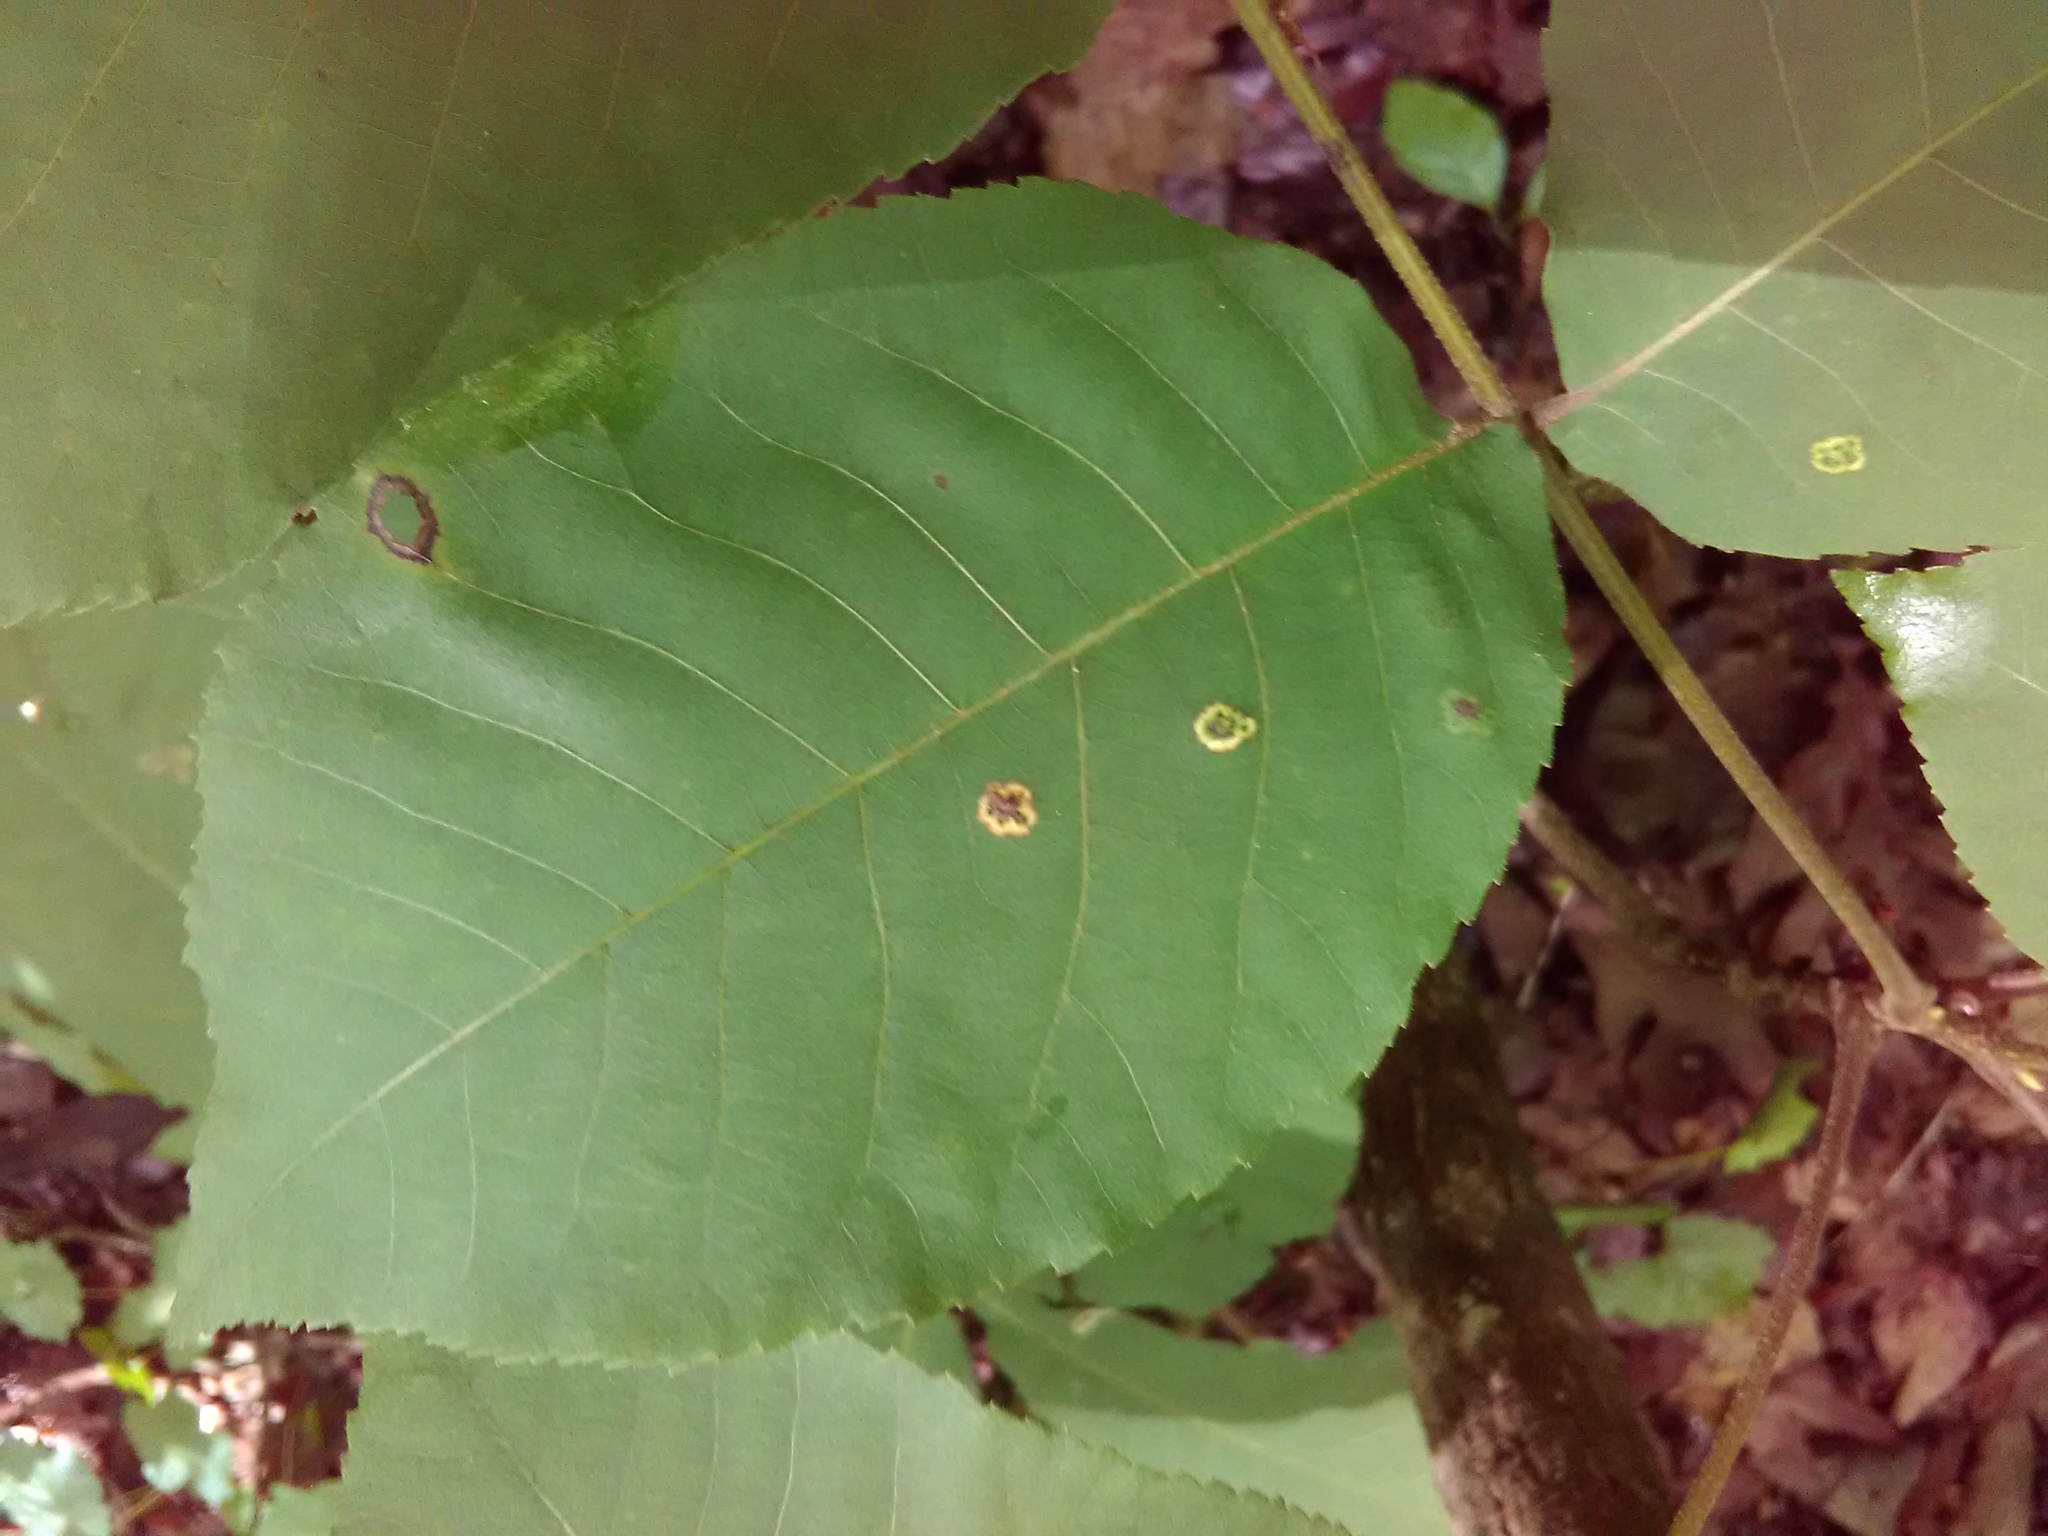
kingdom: Animalia
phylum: Arthropoda
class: Insecta
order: Diptera
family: Cecidomyiidae
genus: Gliaspilota
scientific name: Gliaspilota glutinosa
